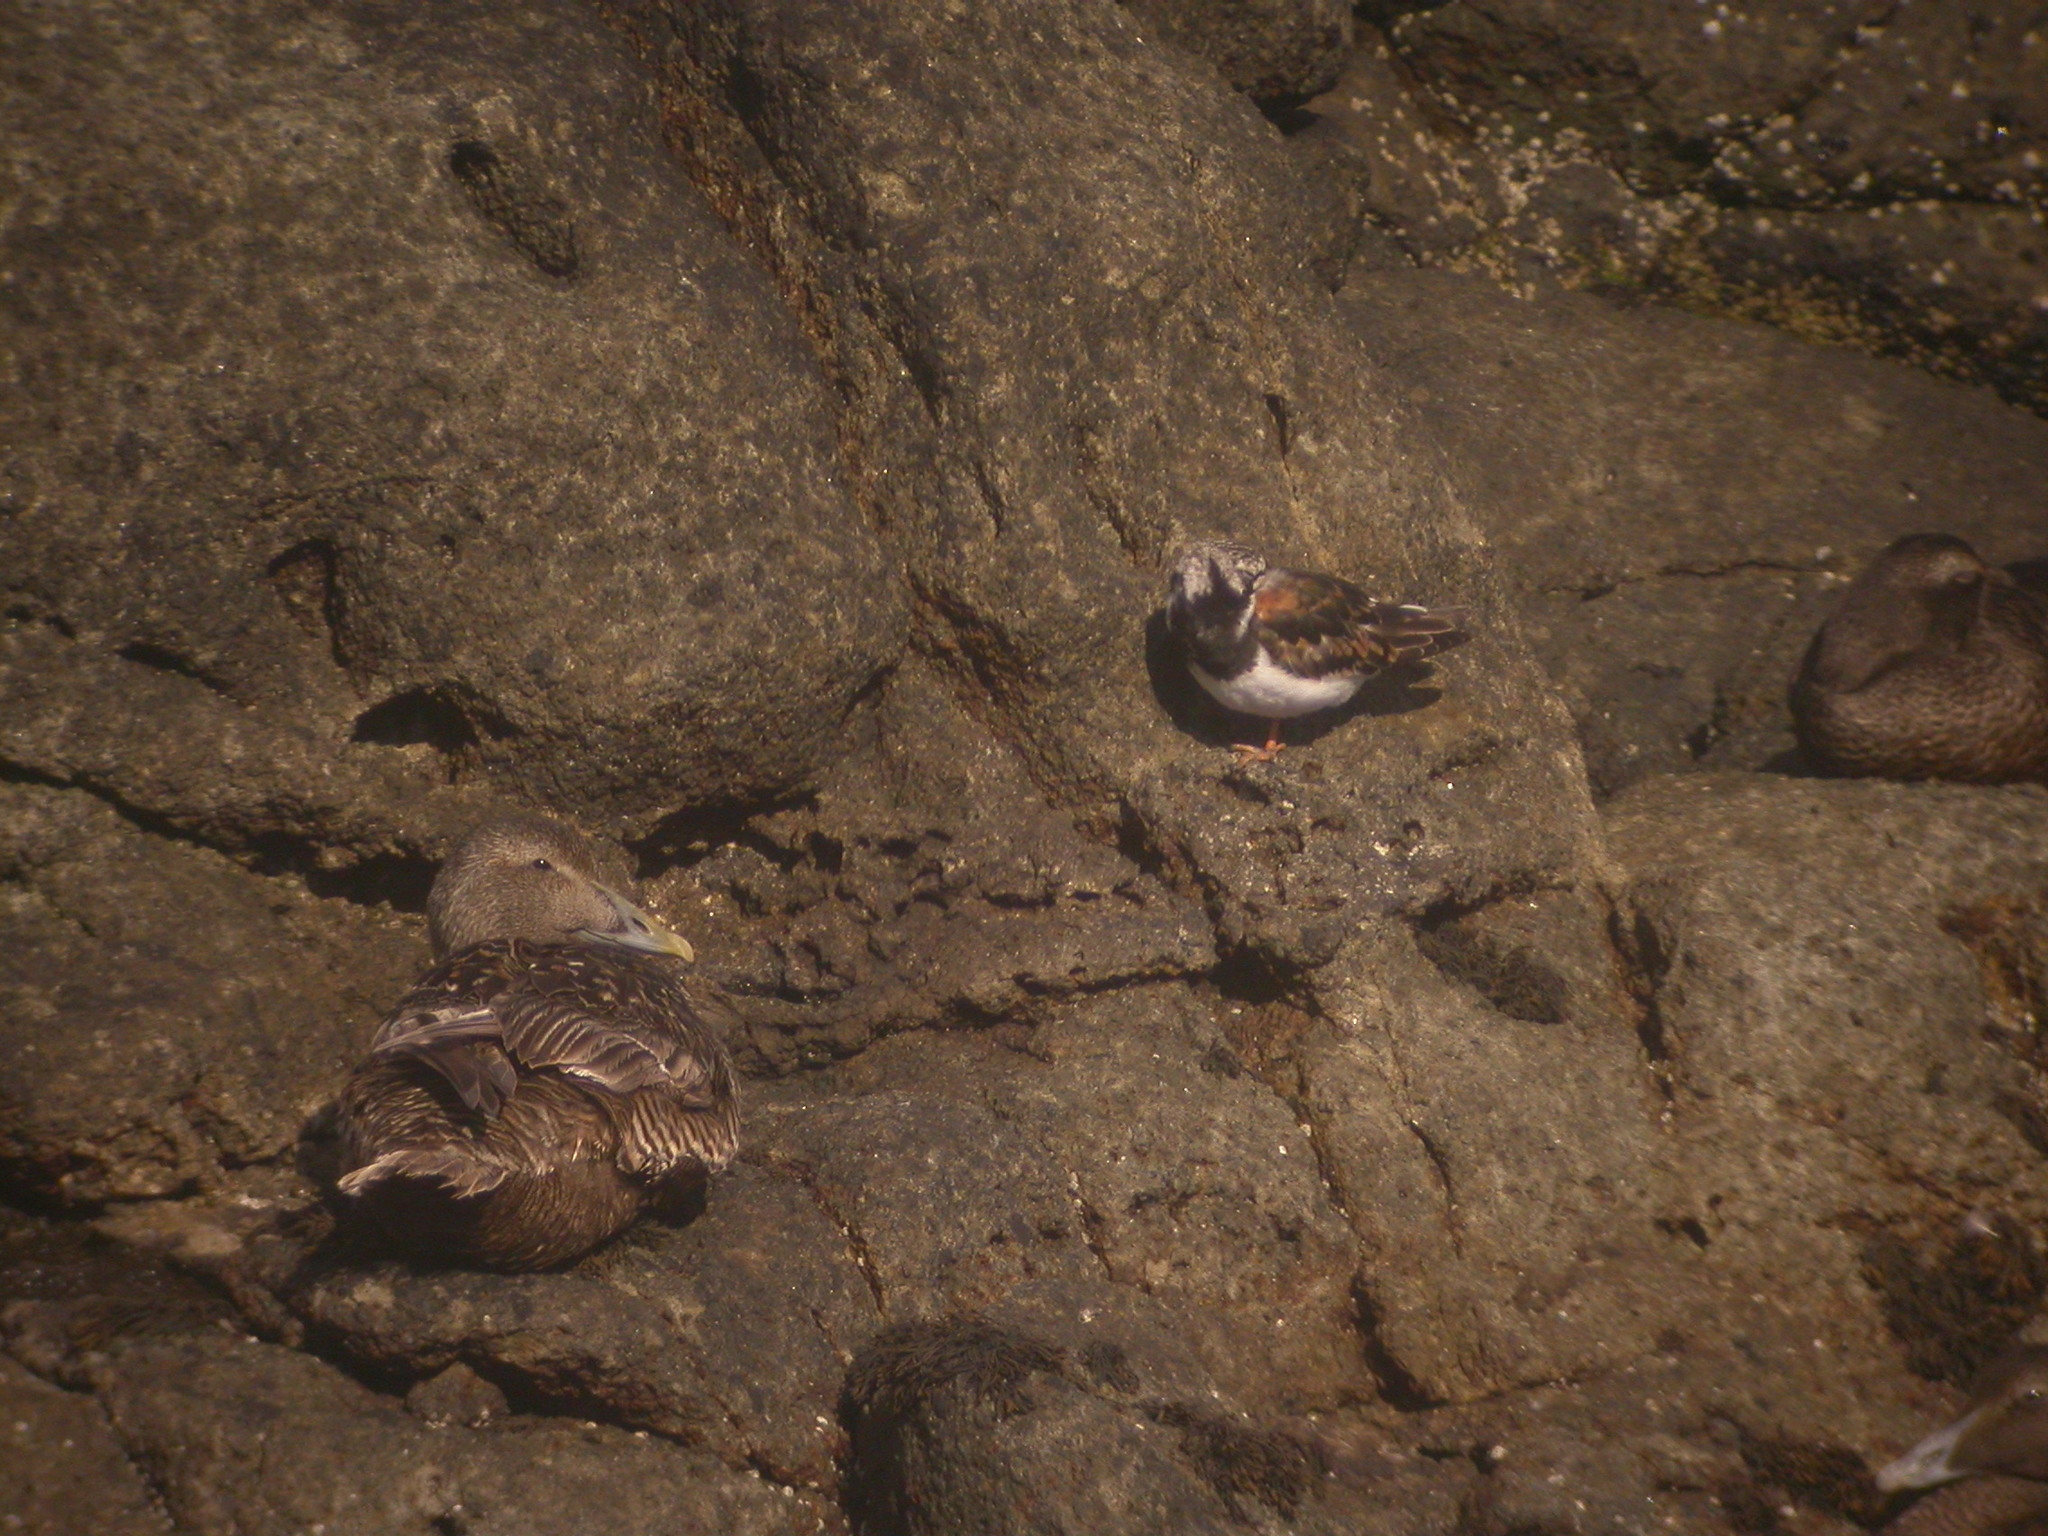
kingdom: Animalia
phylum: Chordata
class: Aves
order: Anseriformes
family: Anatidae
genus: Somateria
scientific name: Somateria mollissima
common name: Common eider
